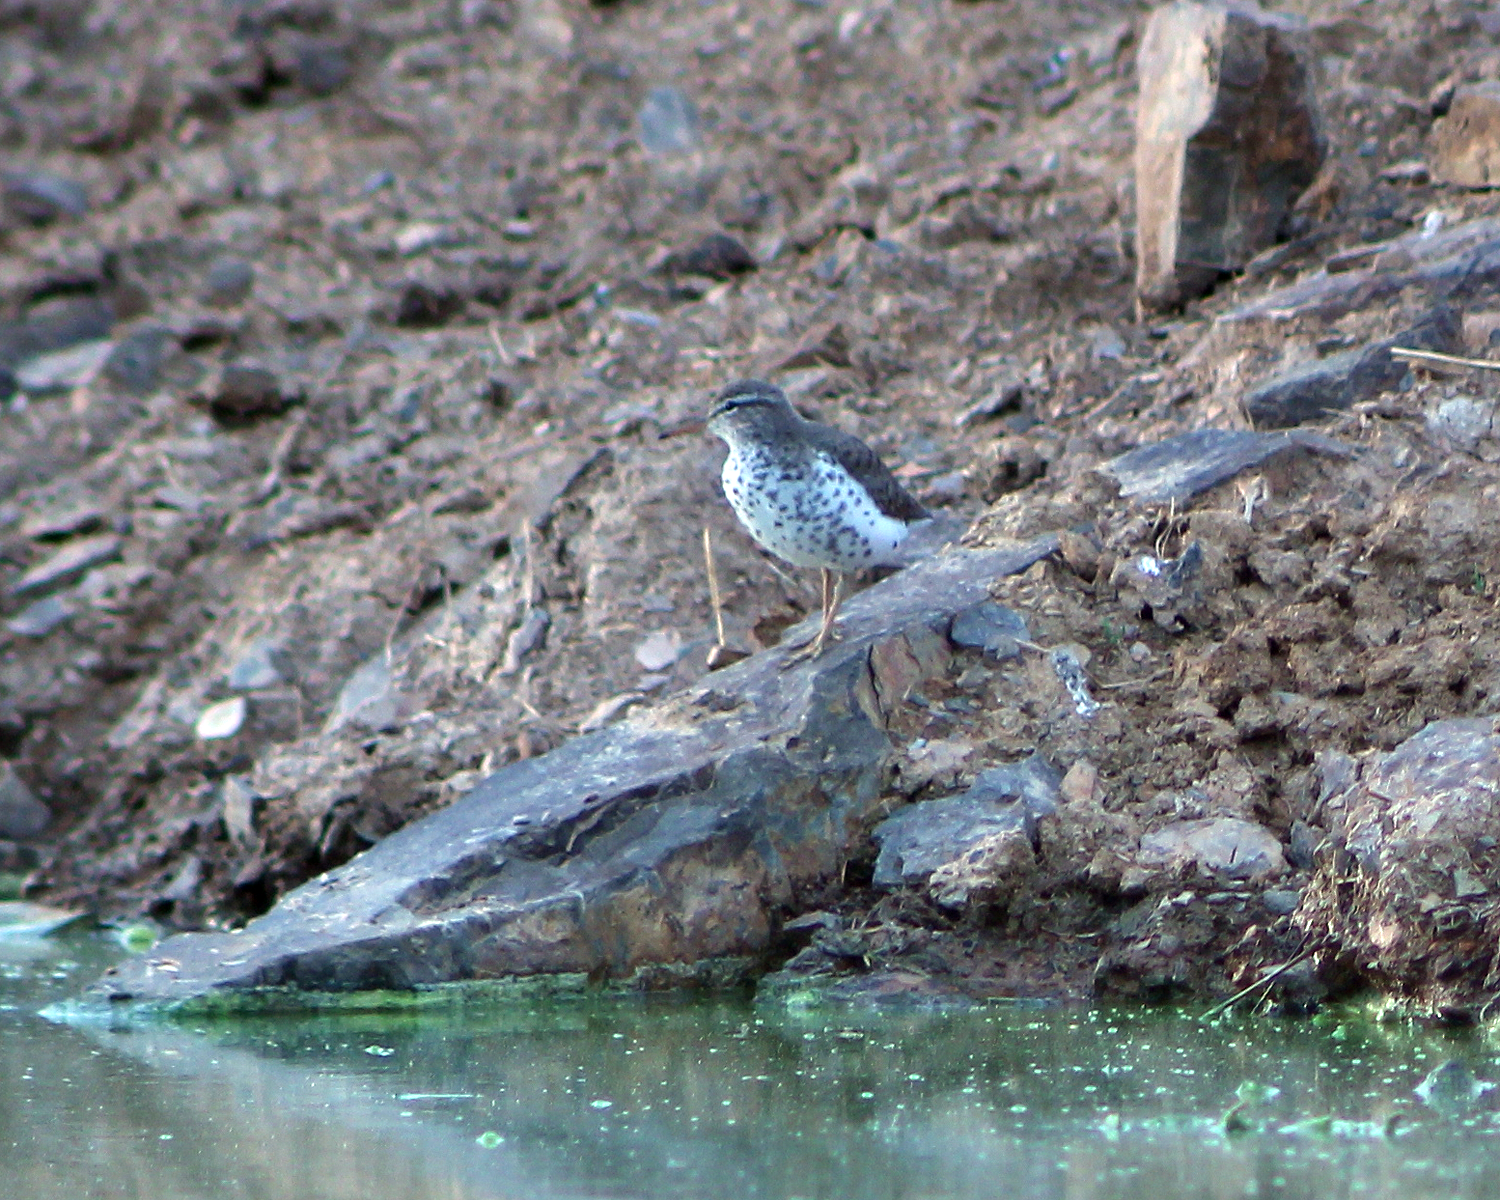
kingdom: Animalia
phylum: Chordata
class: Aves
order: Charadriiformes
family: Scolopacidae
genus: Actitis
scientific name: Actitis macularius
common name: Spotted sandpiper
